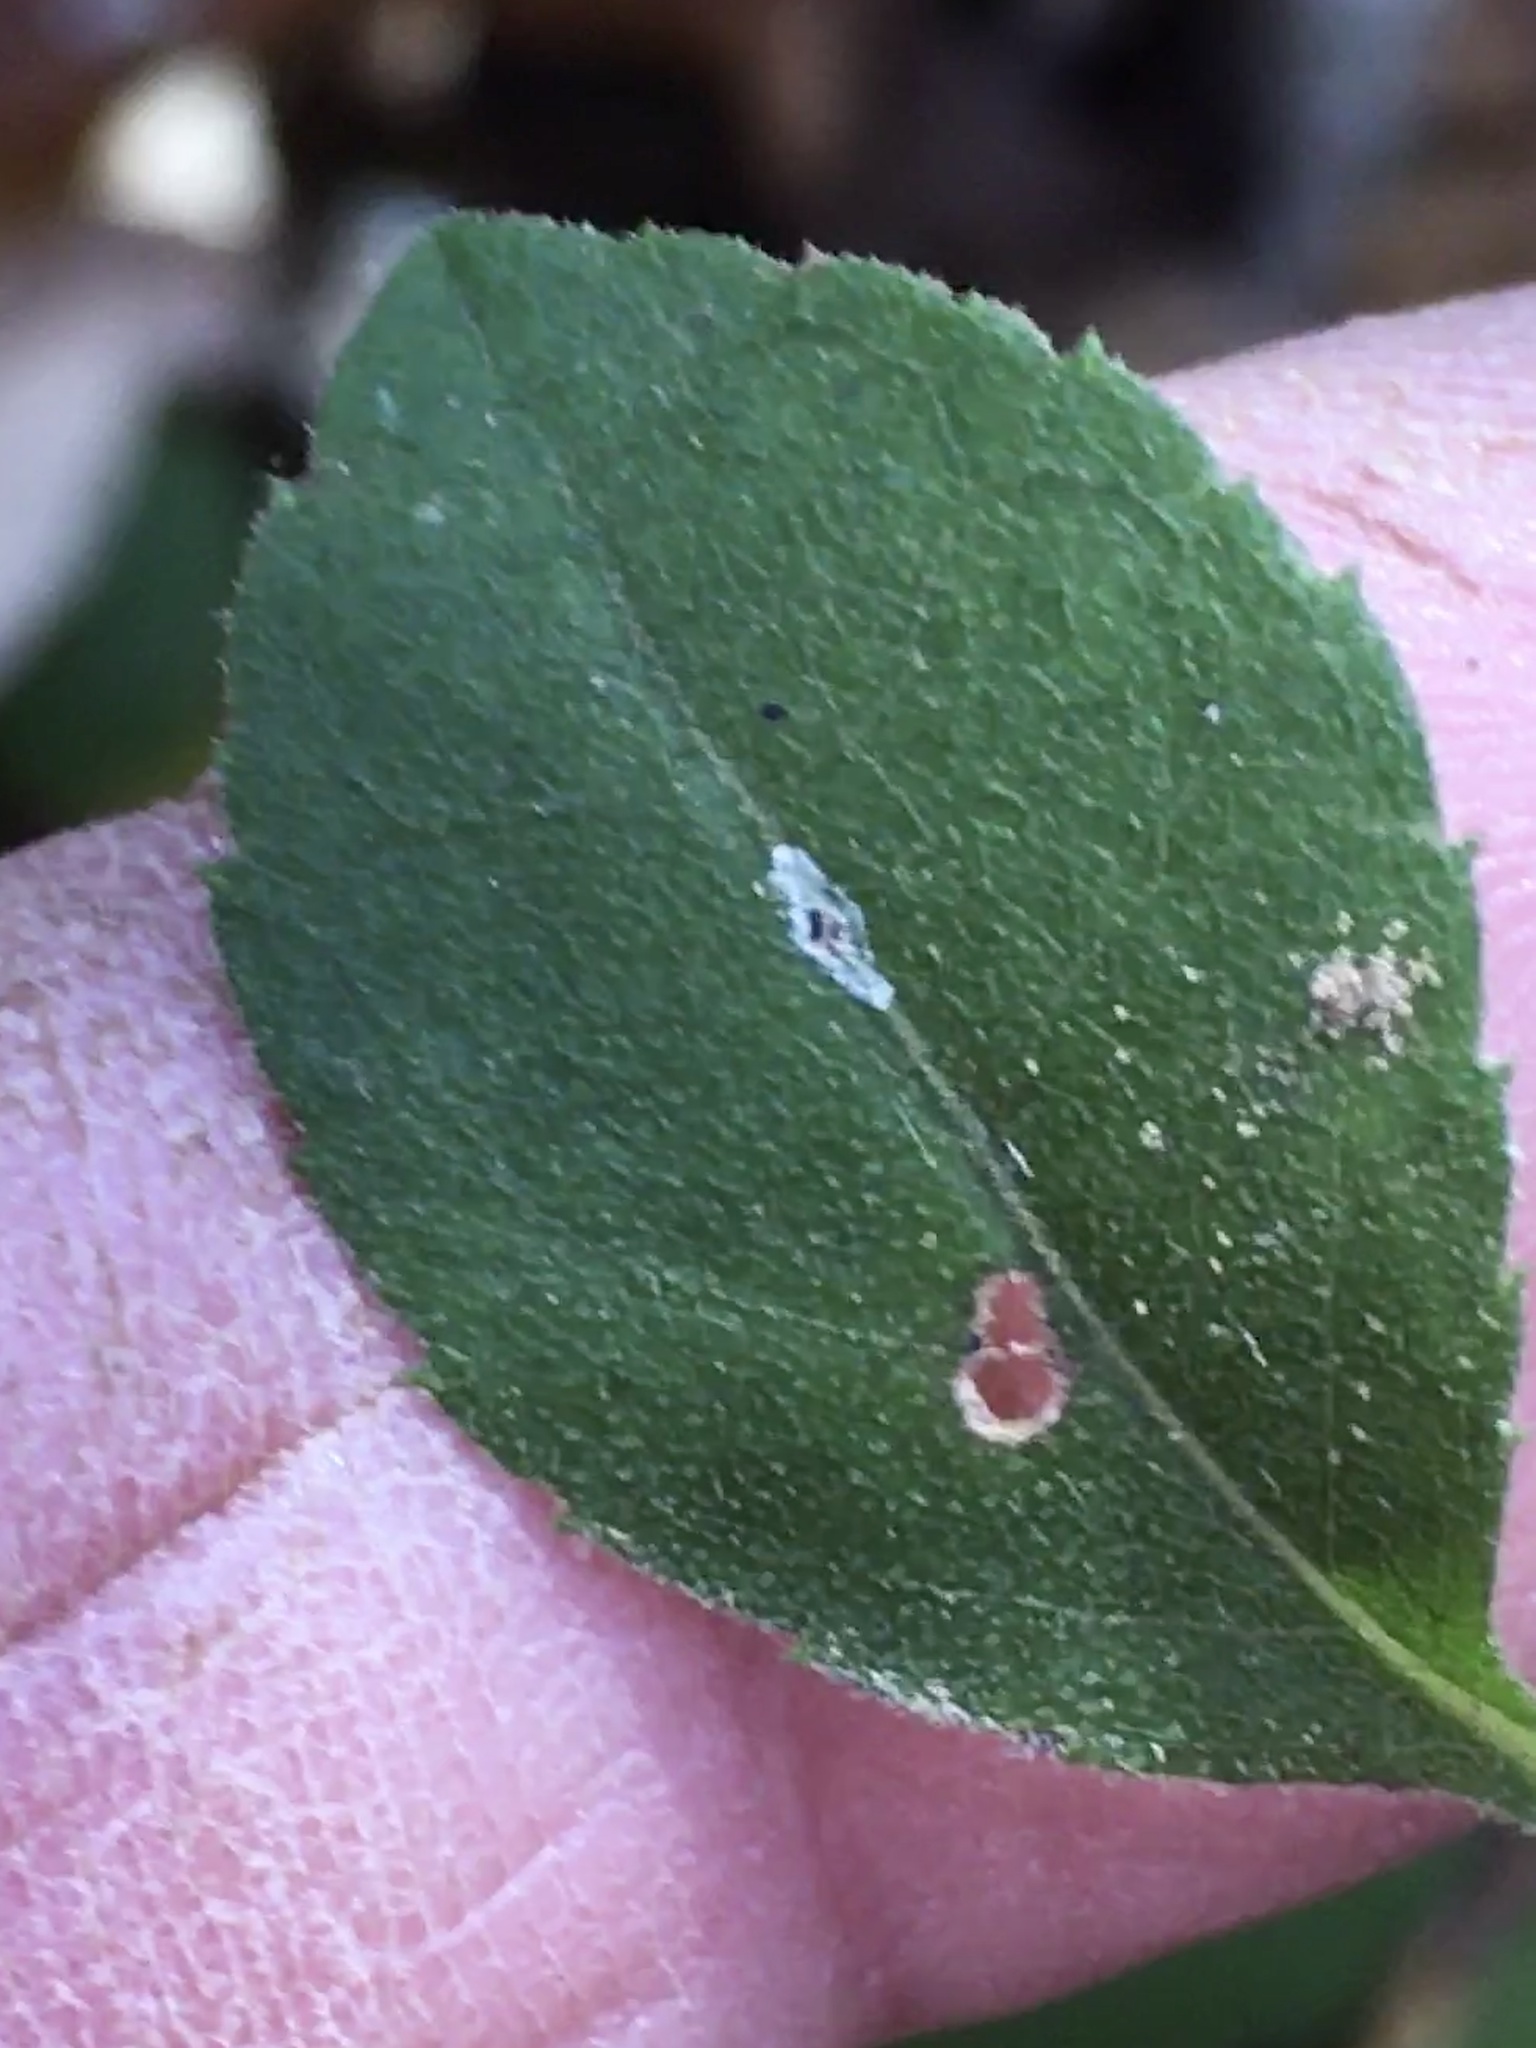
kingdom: Plantae
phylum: Tracheophyta
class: Magnoliopsida
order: Asterales
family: Asteraceae
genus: Eurybia
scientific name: Eurybia mirabilis
